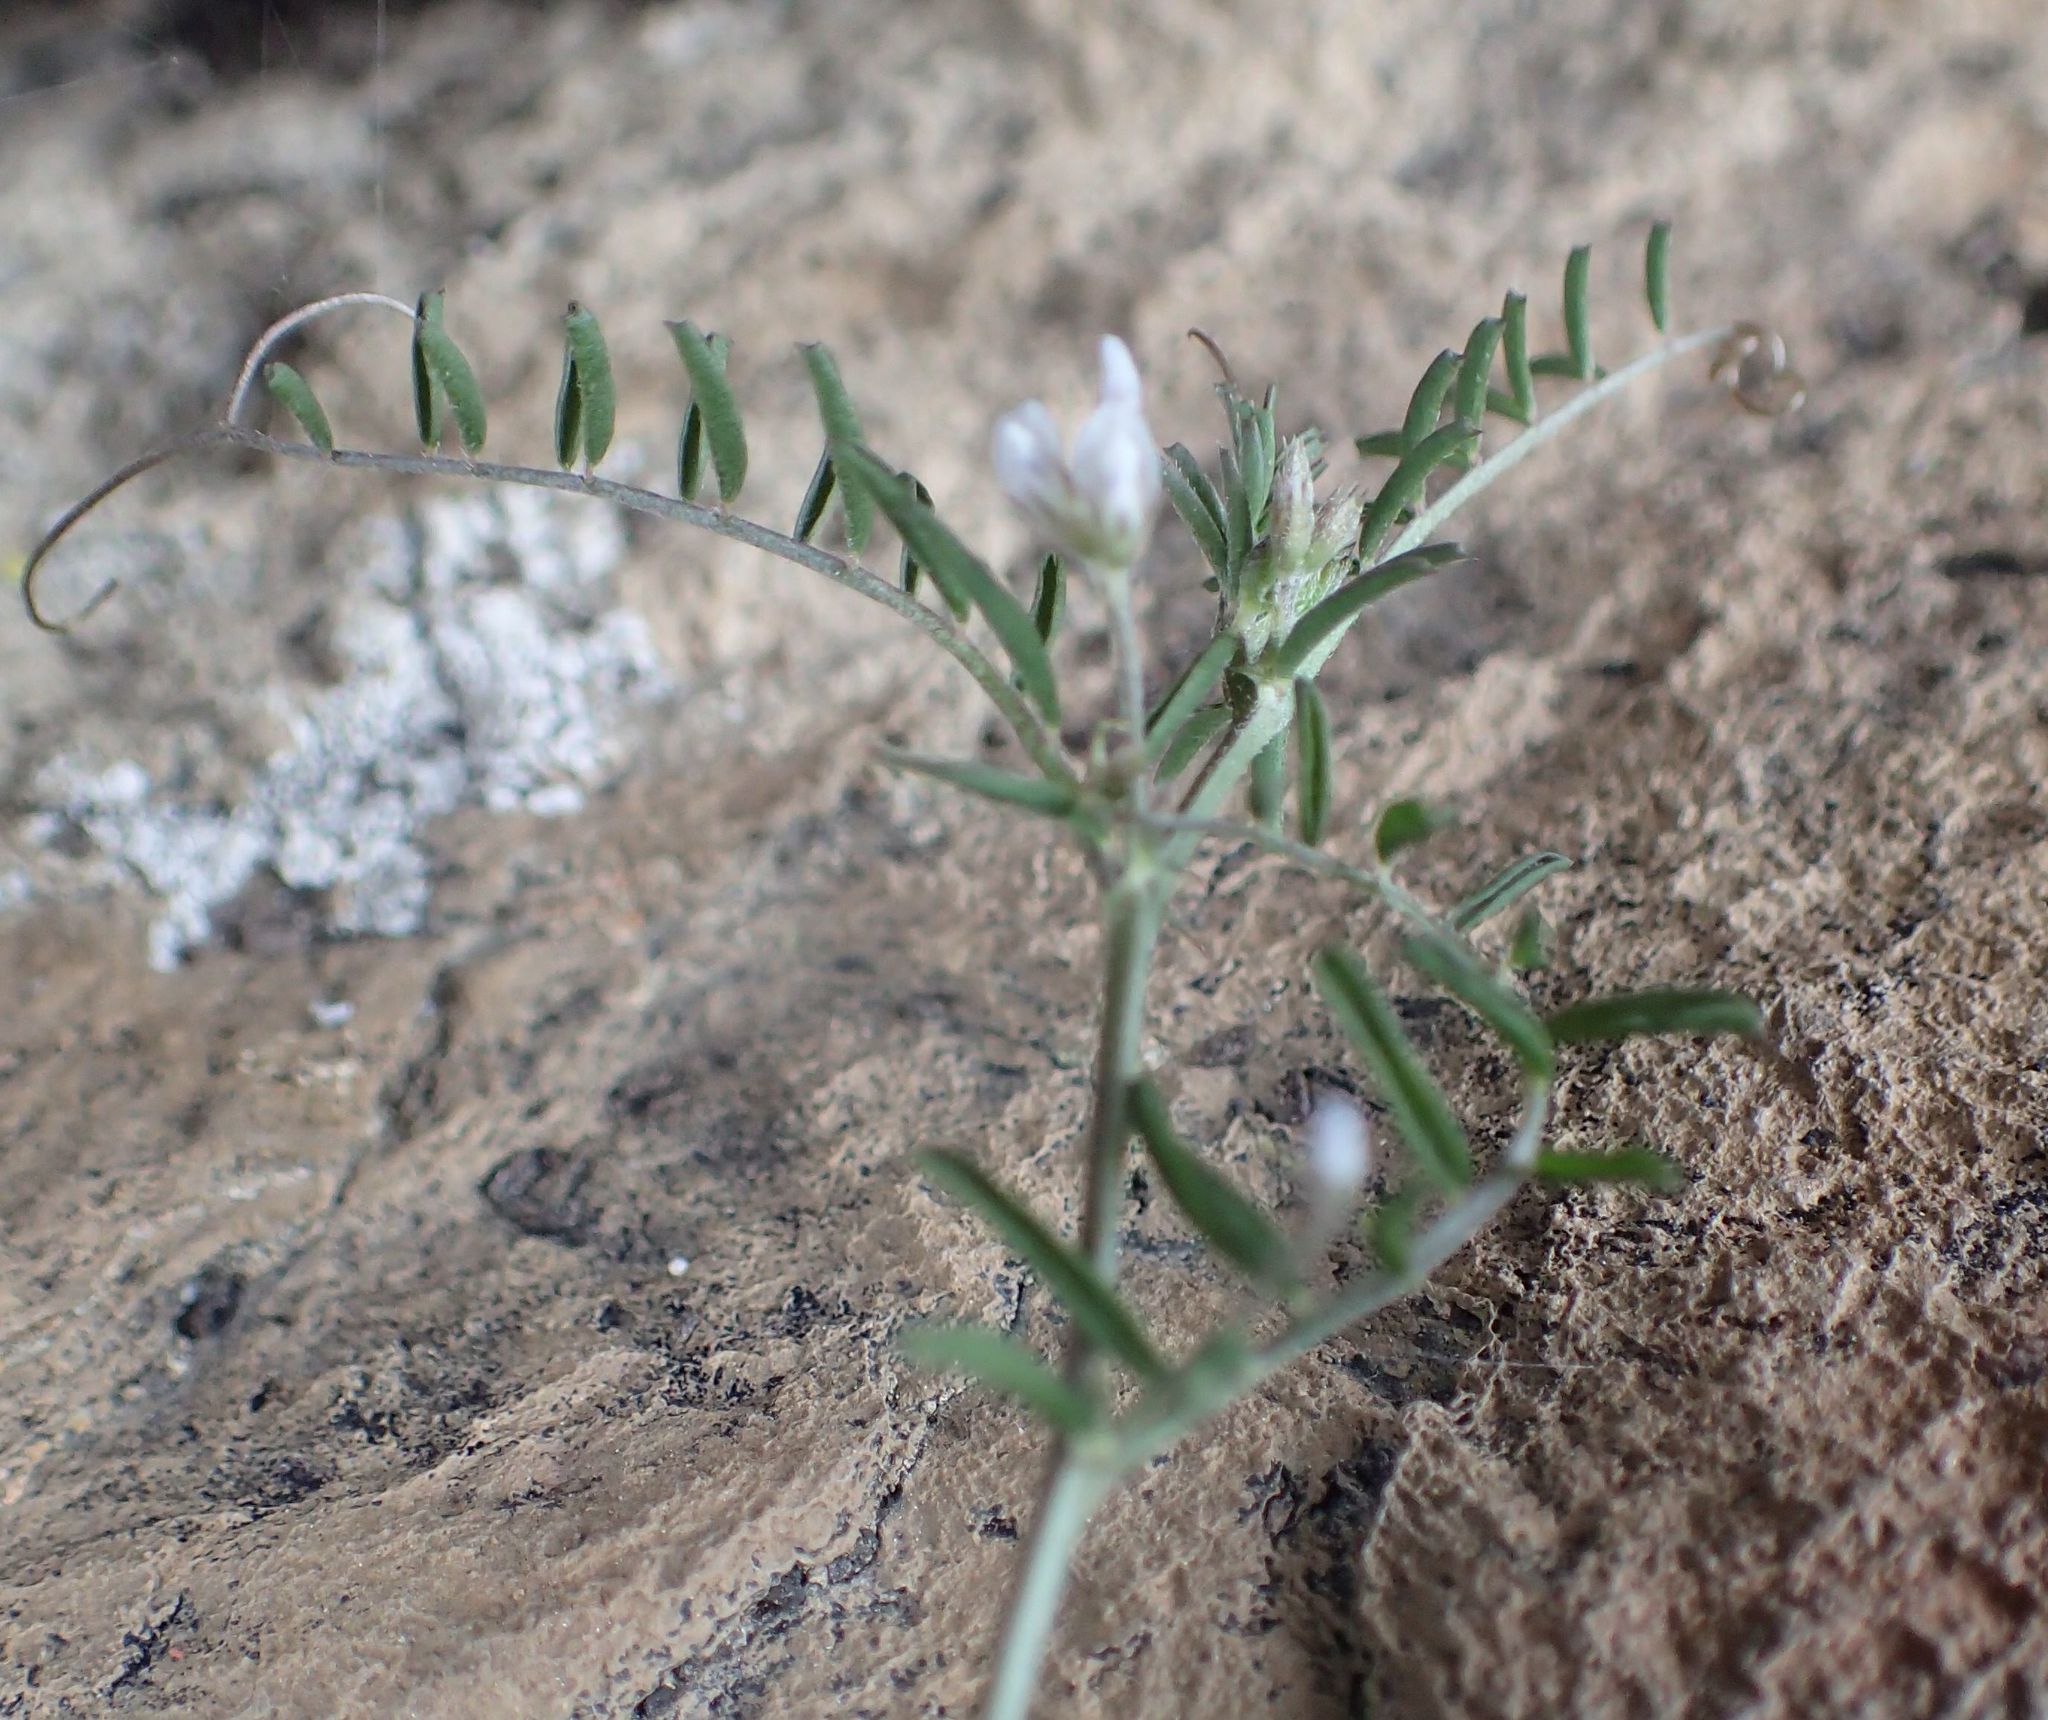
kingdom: Plantae
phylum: Tracheophyta
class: Magnoliopsida
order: Fabales
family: Fabaceae
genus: Vicia
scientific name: Vicia hirsuta
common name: Tiny vetch
